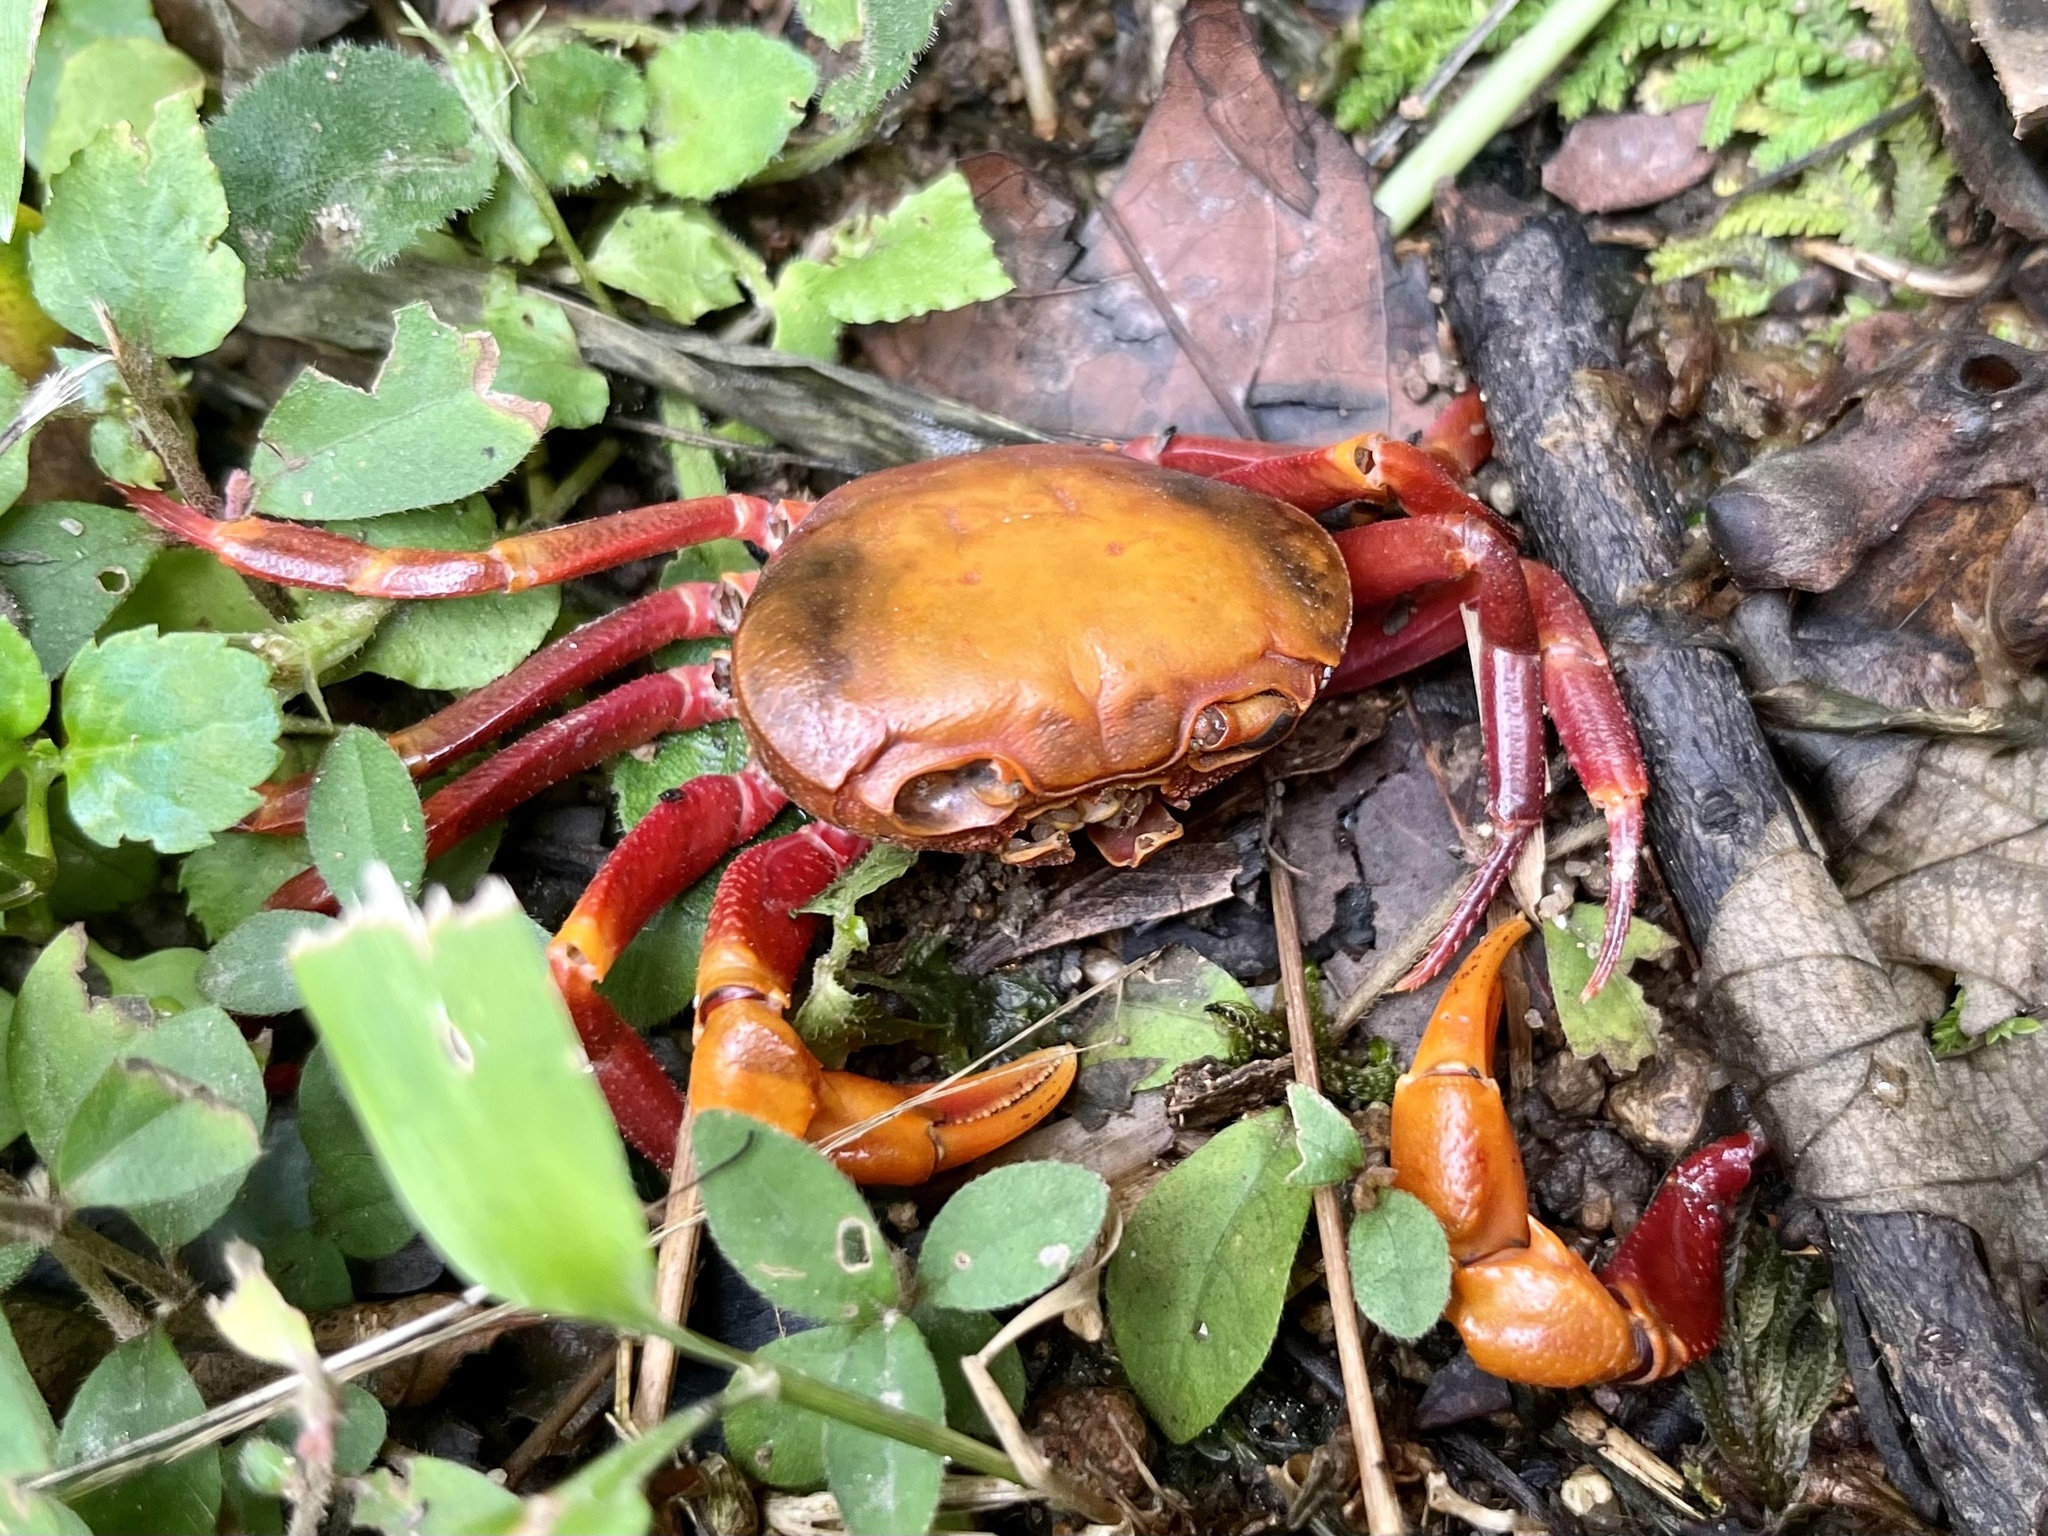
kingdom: Animalia
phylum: Arthropoda
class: Malacostraca
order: Decapoda
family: Potamidae
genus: Nanhaipotamon
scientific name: Nanhaipotamon hongkongense
